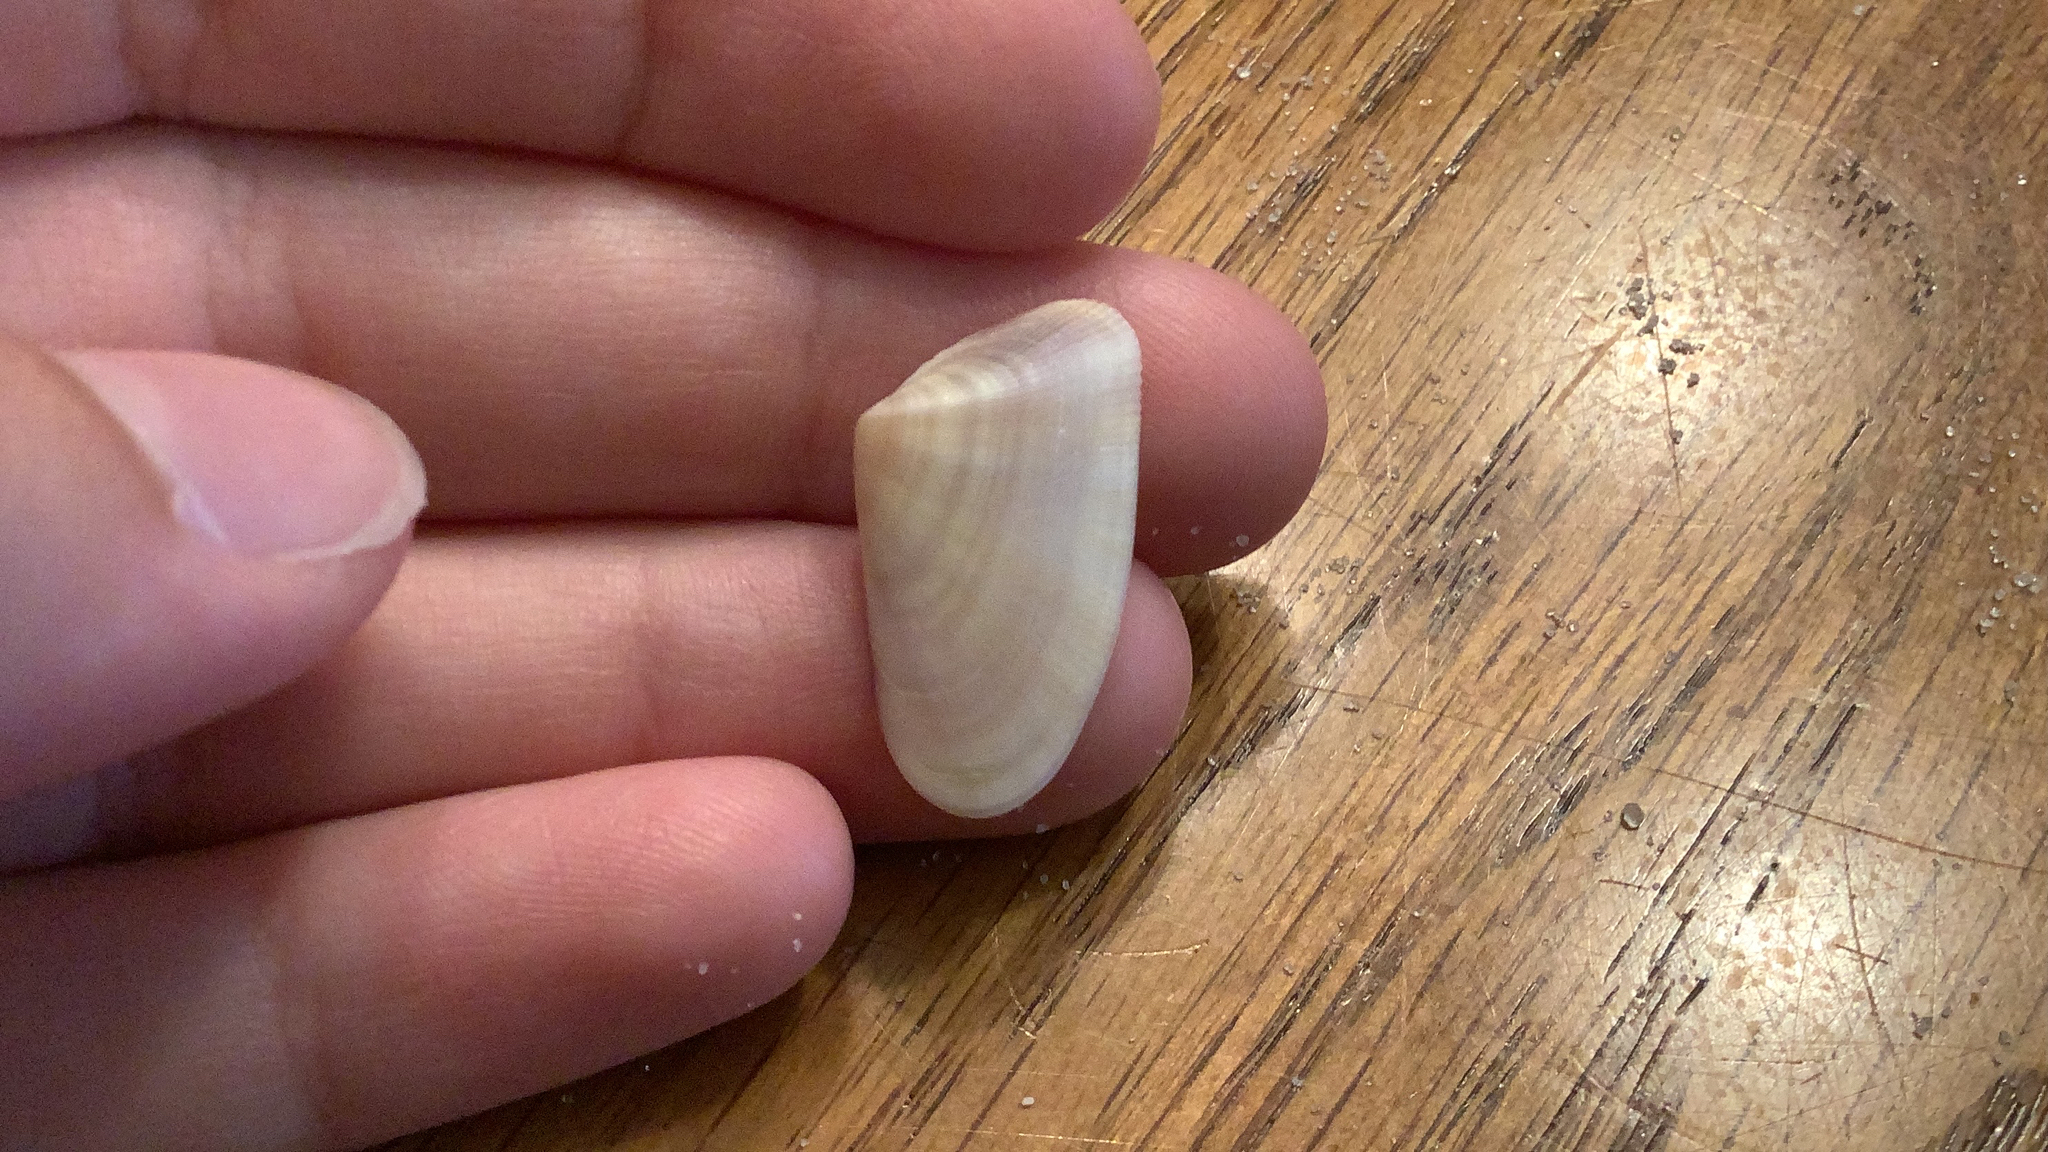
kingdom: Animalia
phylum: Mollusca
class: Bivalvia
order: Cardiida
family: Donacidae
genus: Donax
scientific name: Donax variabilis
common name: Butterfly shell
